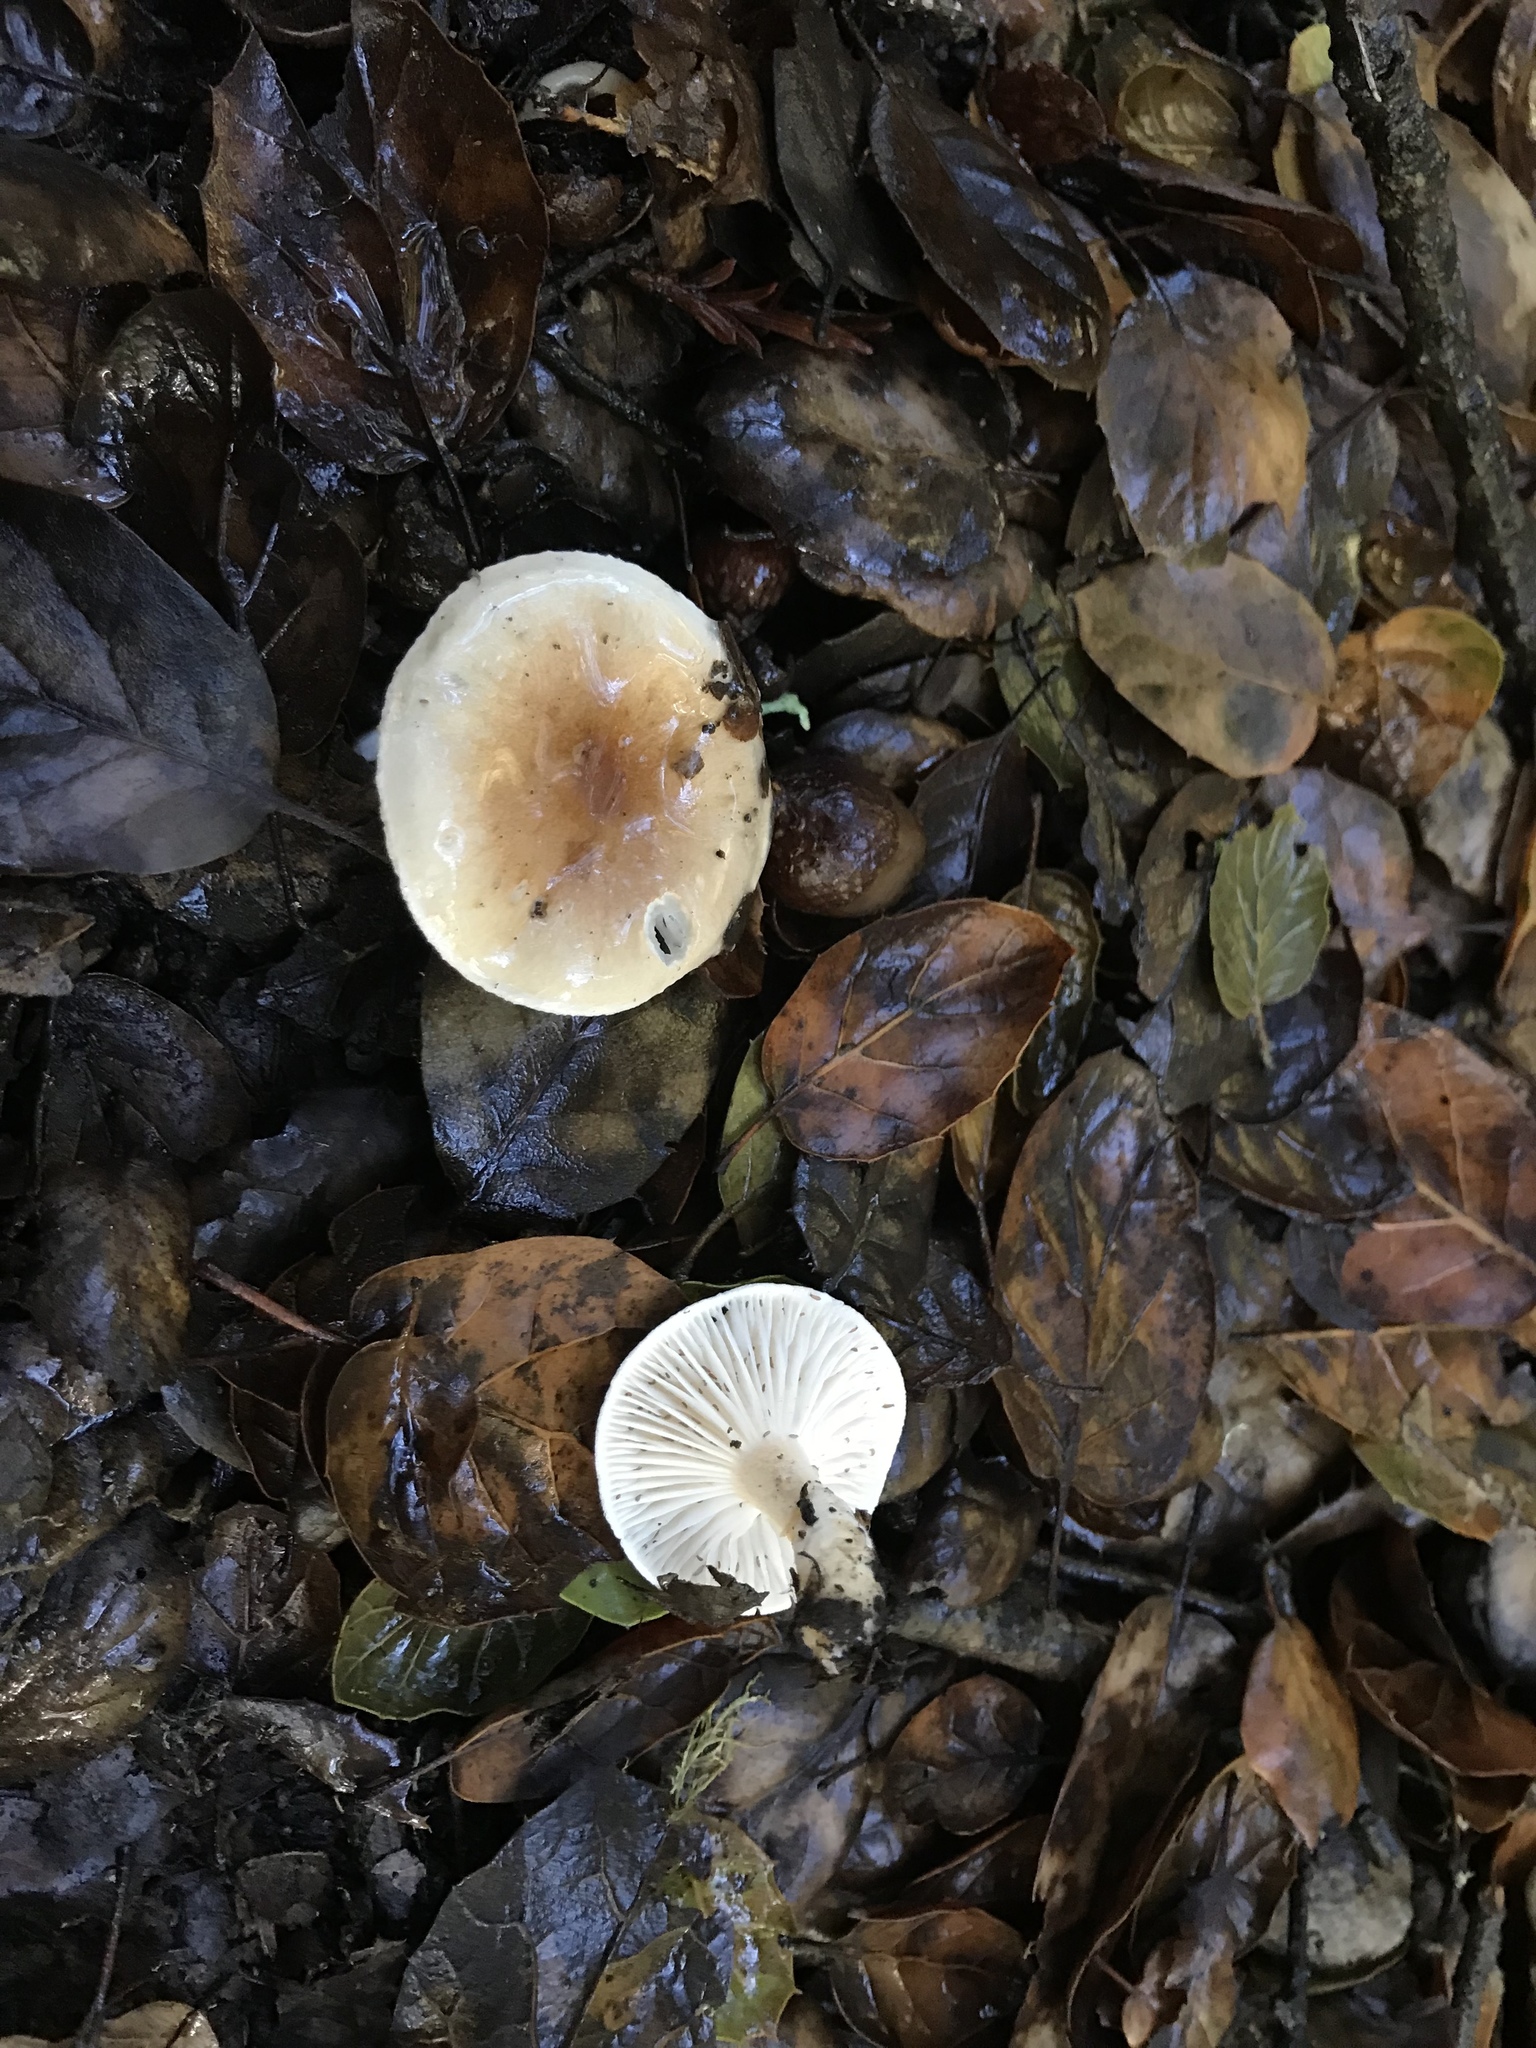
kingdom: Fungi
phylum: Basidiomycota
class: Agaricomycetes
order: Agaricales
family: Hygrophoraceae
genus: Hygrophorus
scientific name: Hygrophorus roseobrunneus
